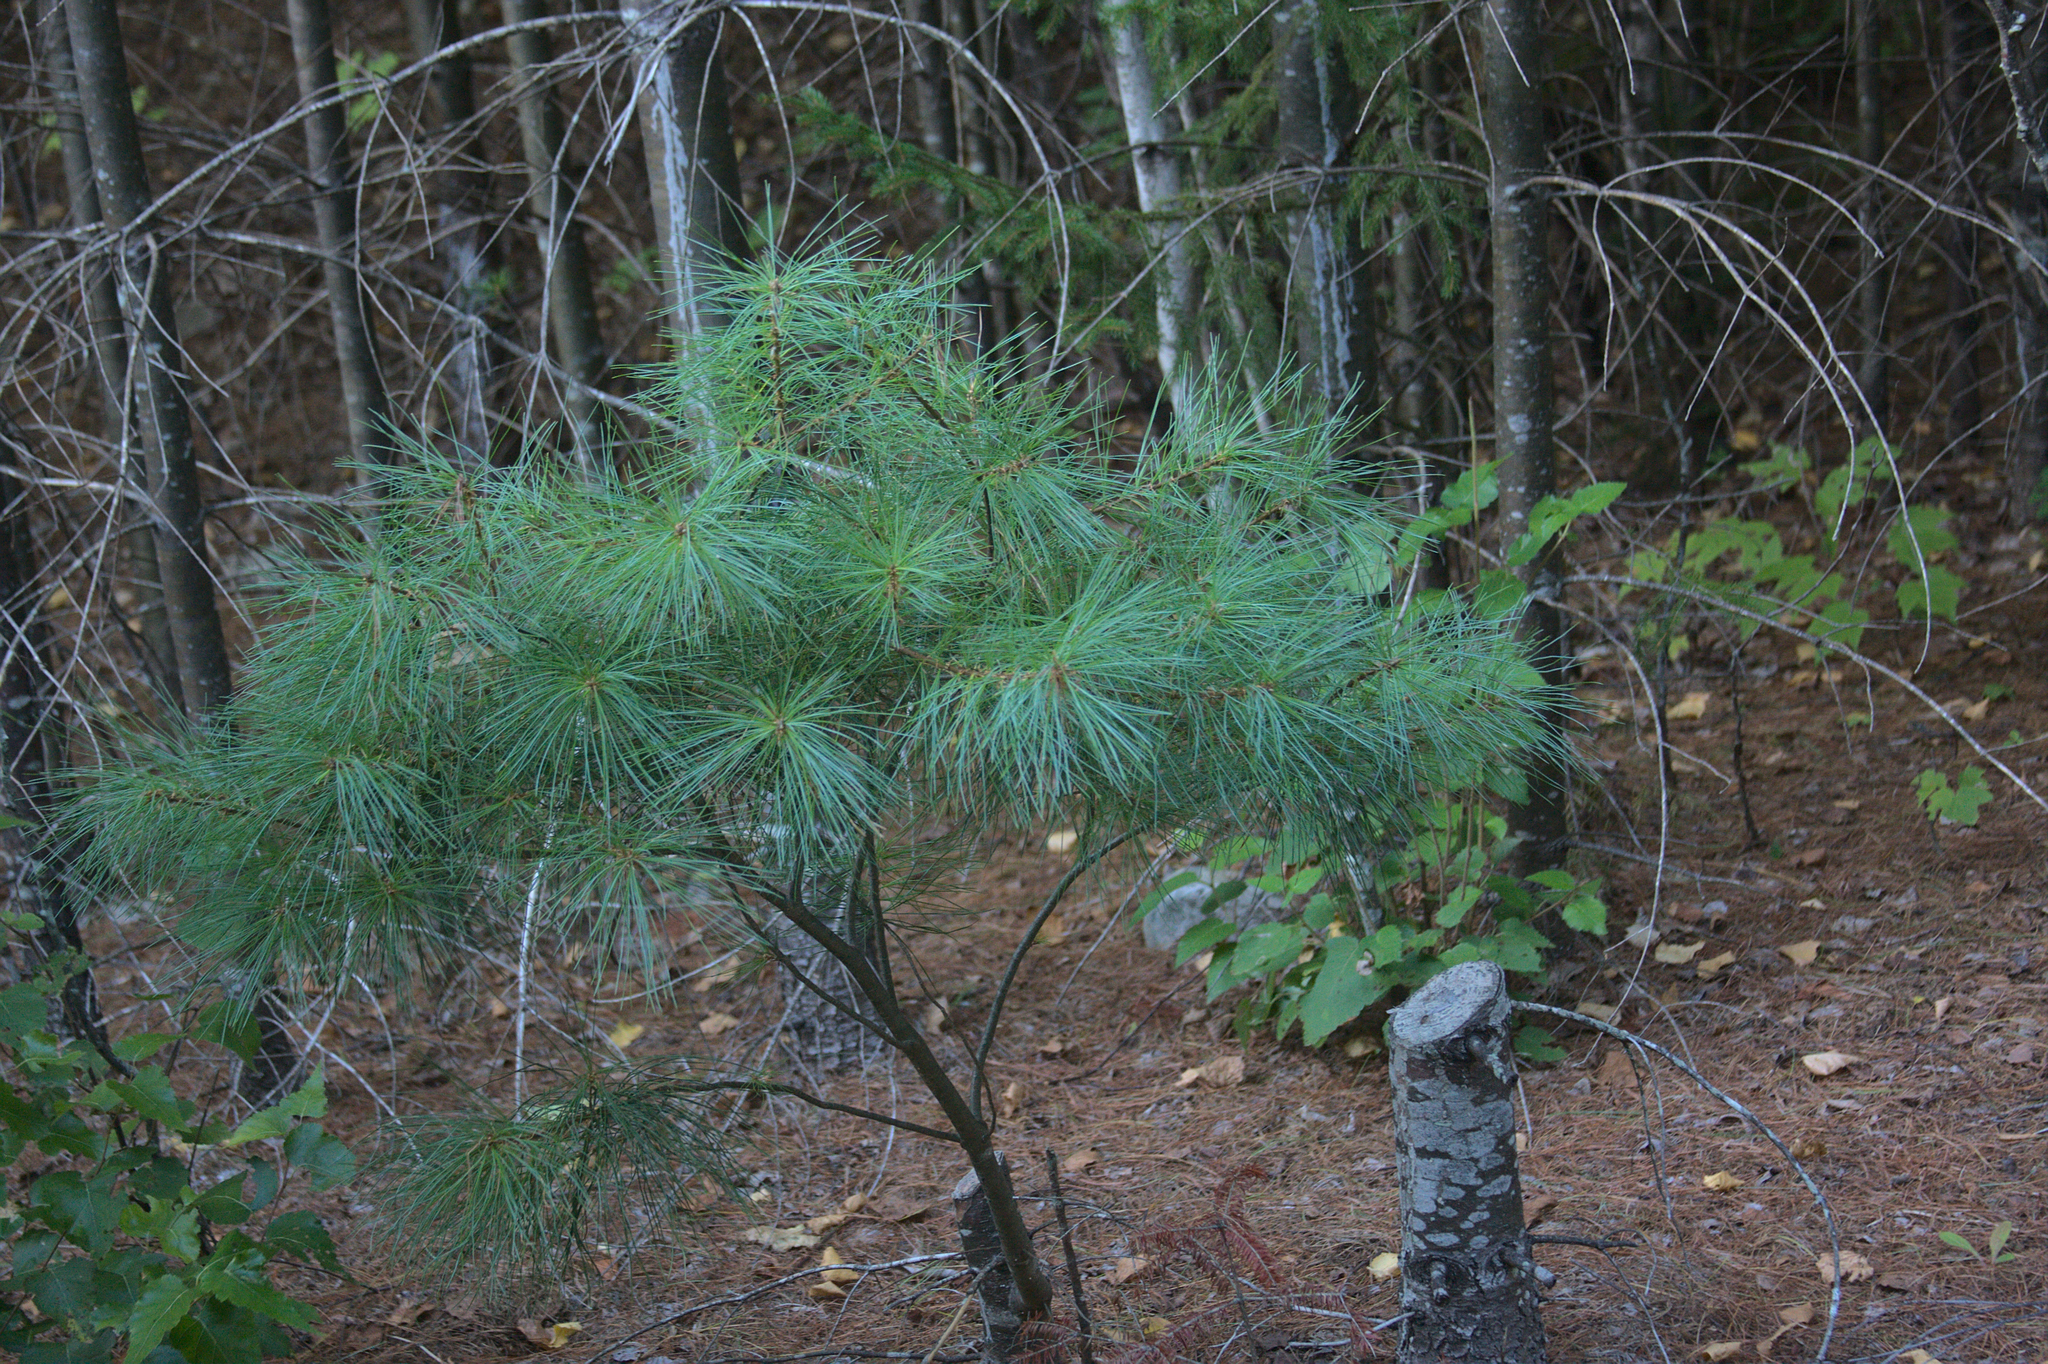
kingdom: Plantae
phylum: Tracheophyta
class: Pinopsida
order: Pinales
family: Pinaceae
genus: Pinus
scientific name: Pinus strobus
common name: Weymouth pine
